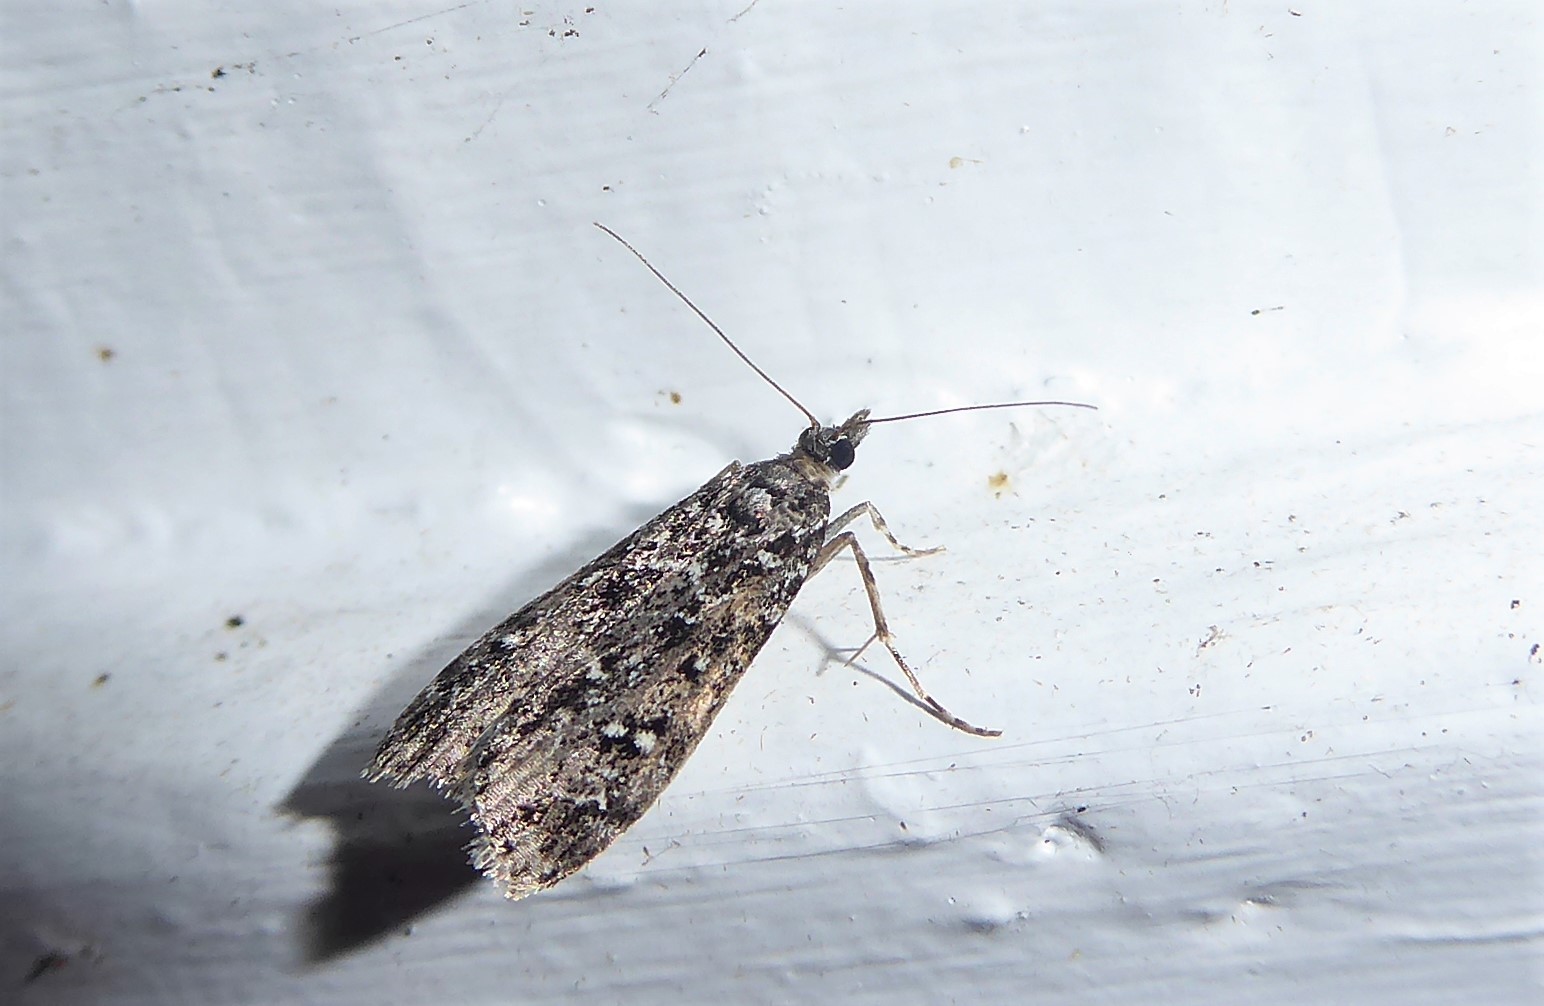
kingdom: Animalia
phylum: Arthropoda
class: Insecta
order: Lepidoptera
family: Crambidae
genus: Eudonia
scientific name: Eudonia philerga
